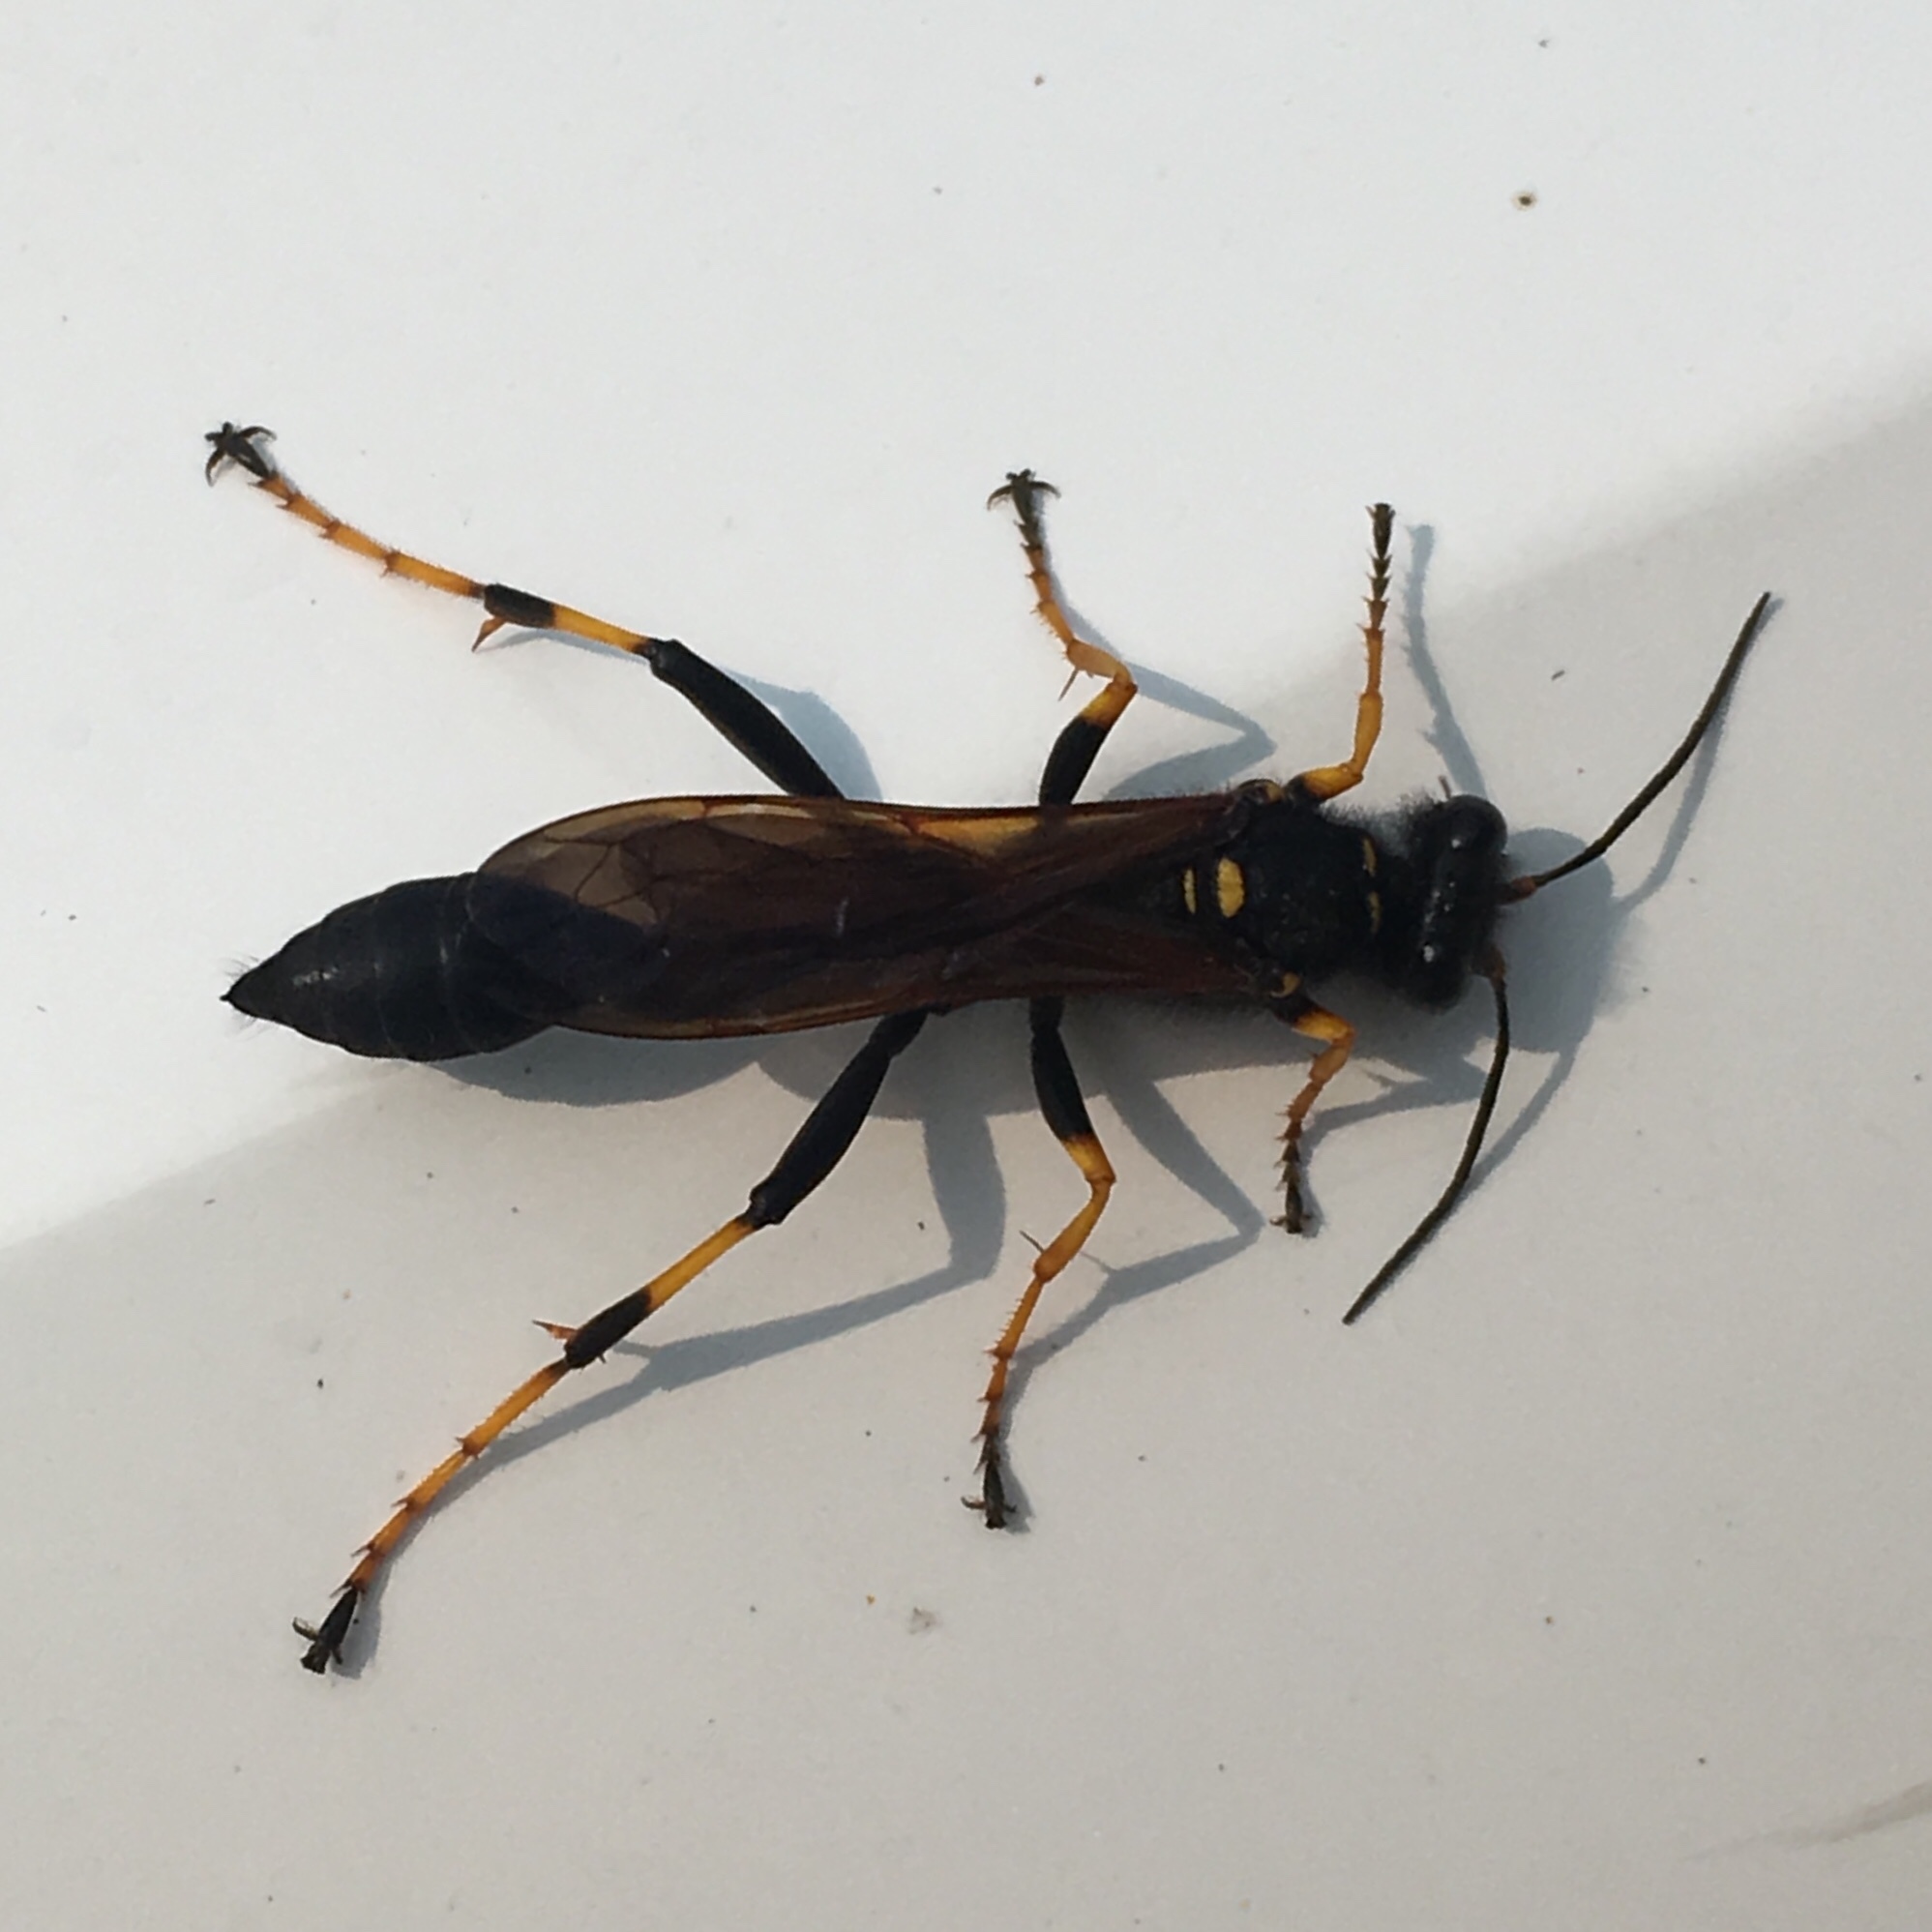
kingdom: Animalia
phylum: Arthropoda
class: Insecta
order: Hymenoptera
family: Sphecidae
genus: Sceliphron
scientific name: Sceliphron caementarium
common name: Mud dauber
